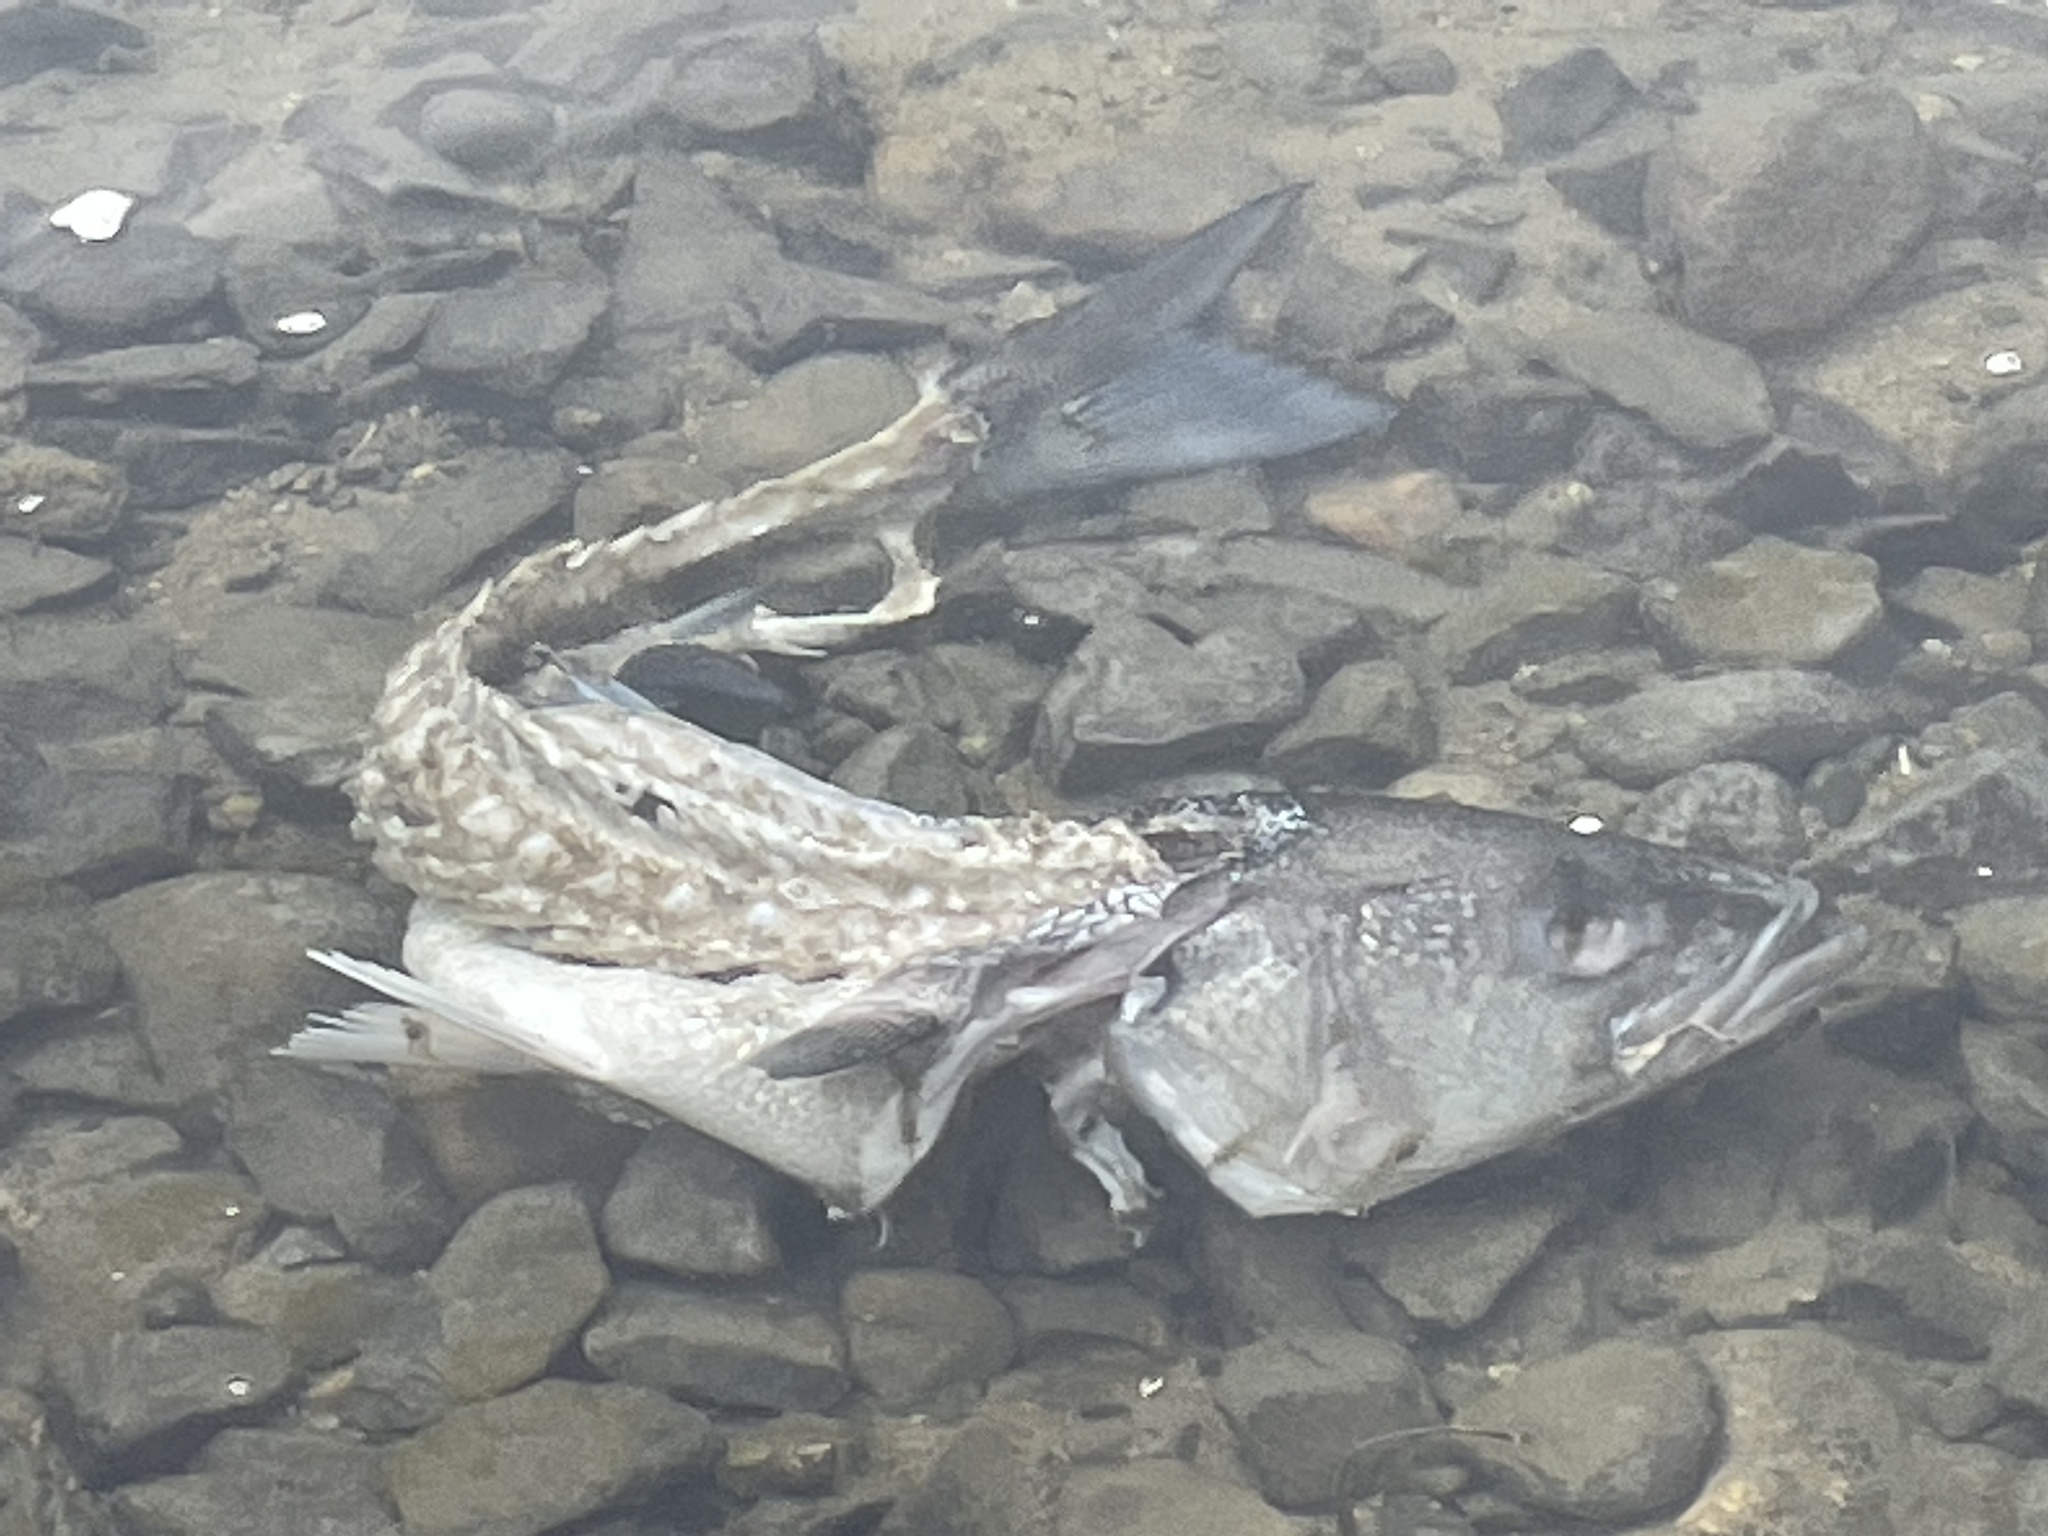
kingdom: Animalia
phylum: Chordata
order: Perciformes
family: Moronidae
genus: Morone
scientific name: Morone saxatilis
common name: Striped bass
